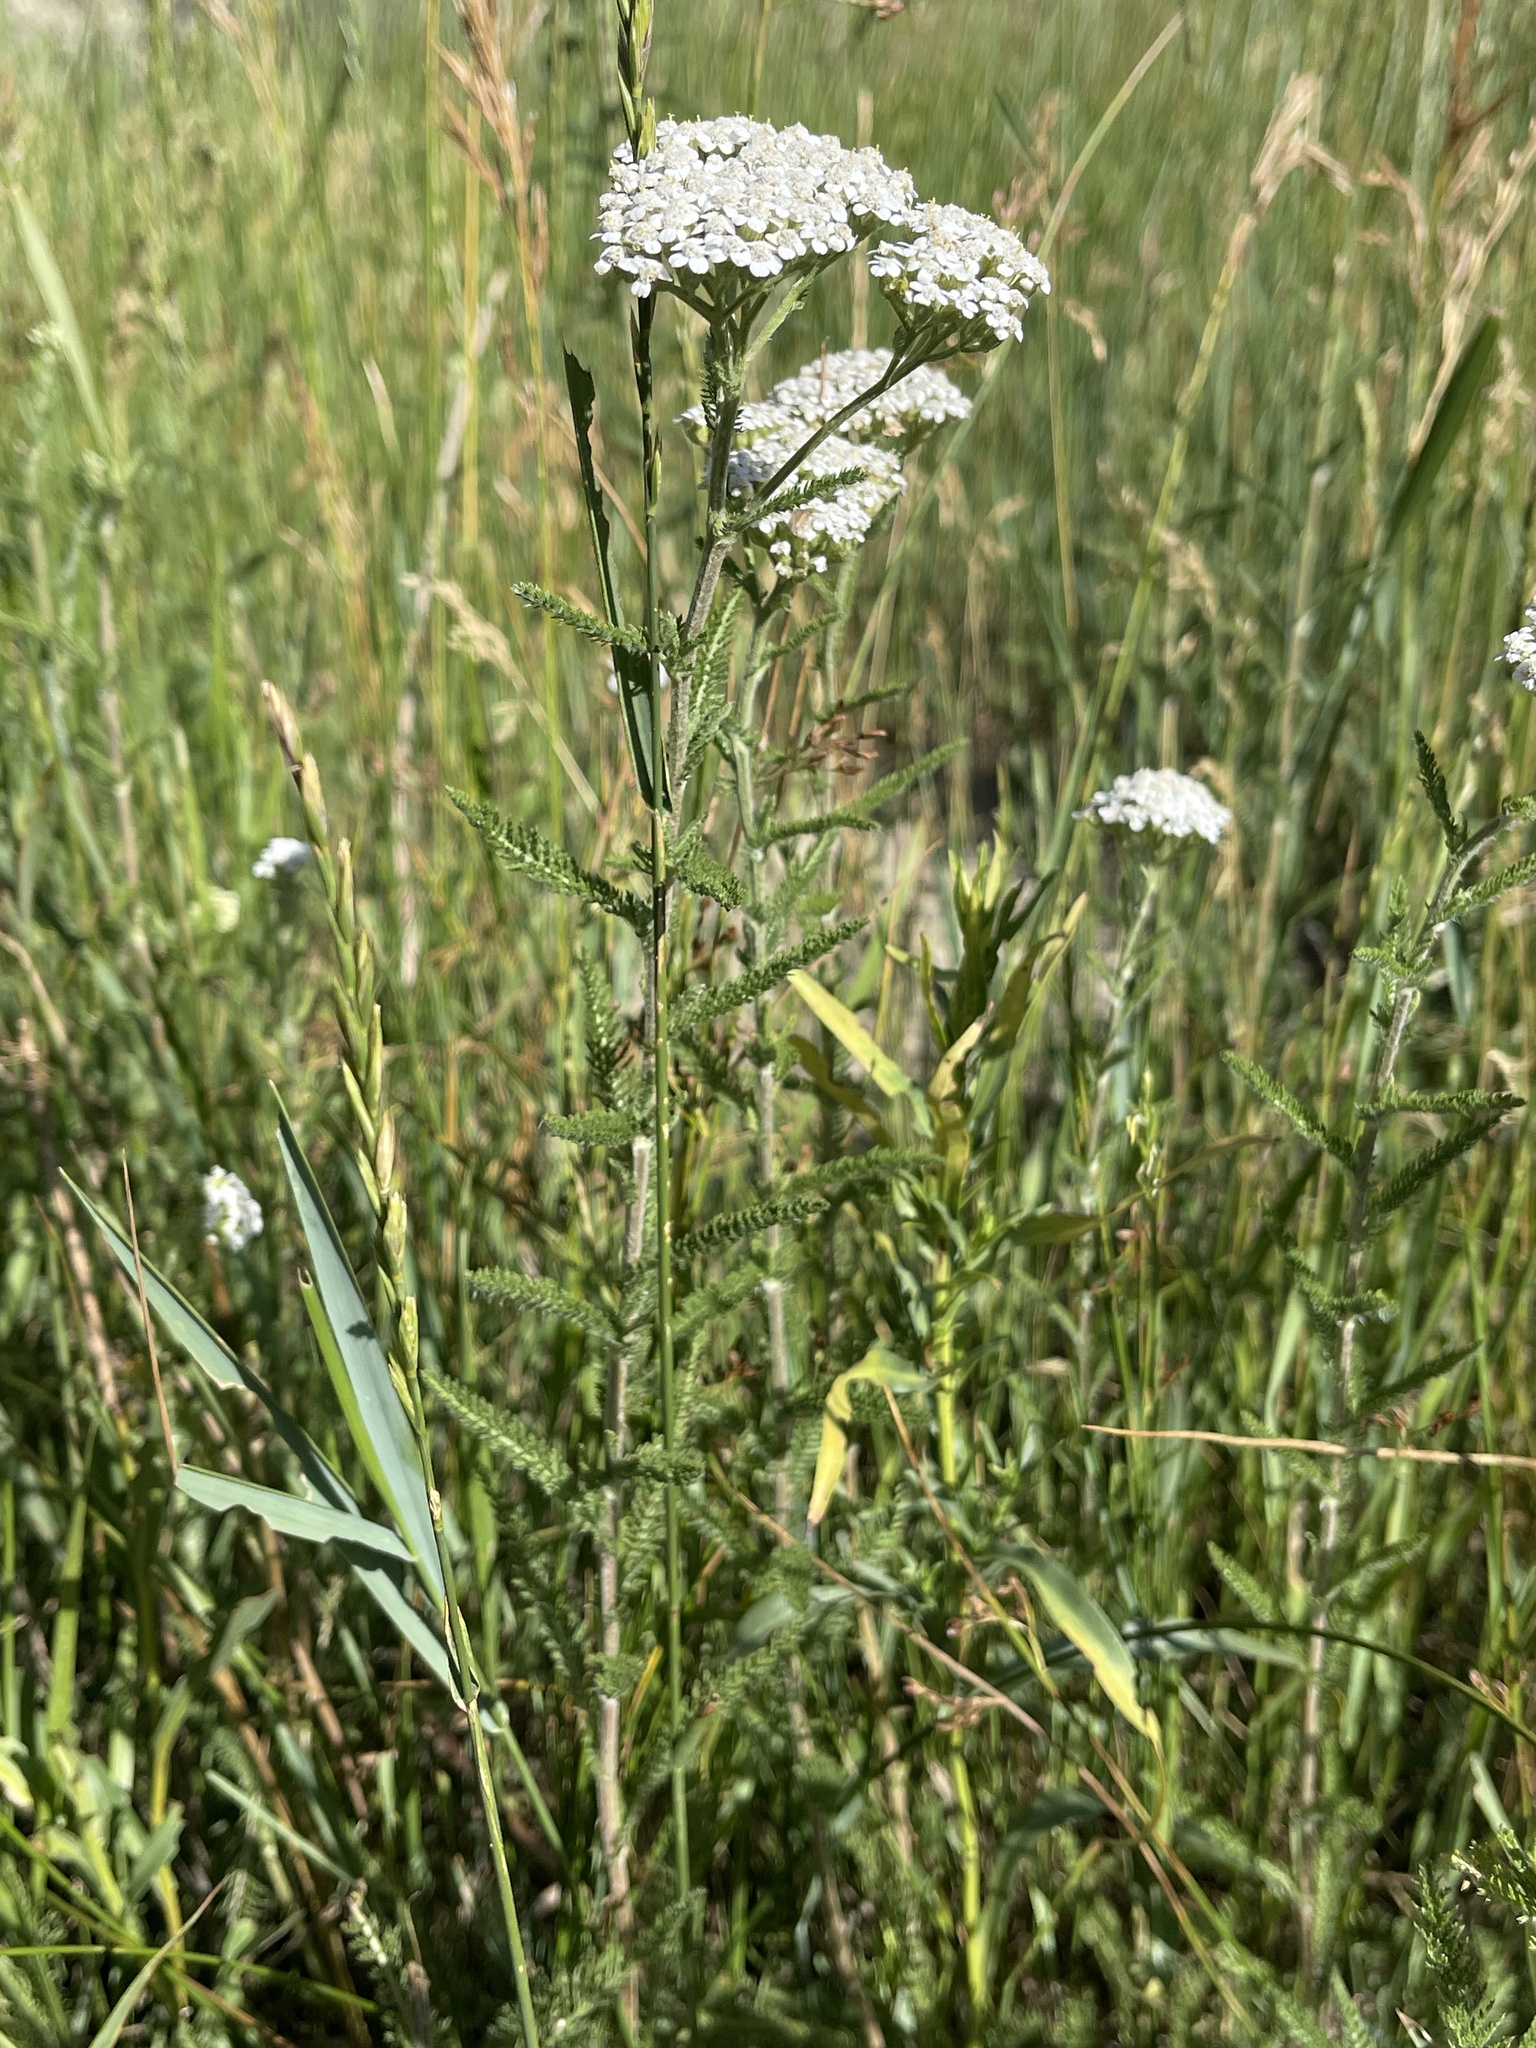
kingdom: Plantae
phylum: Tracheophyta
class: Magnoliopsida
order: Asterales
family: Asteraceae
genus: Achillea
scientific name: Achillea millefolium
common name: Yarrow
